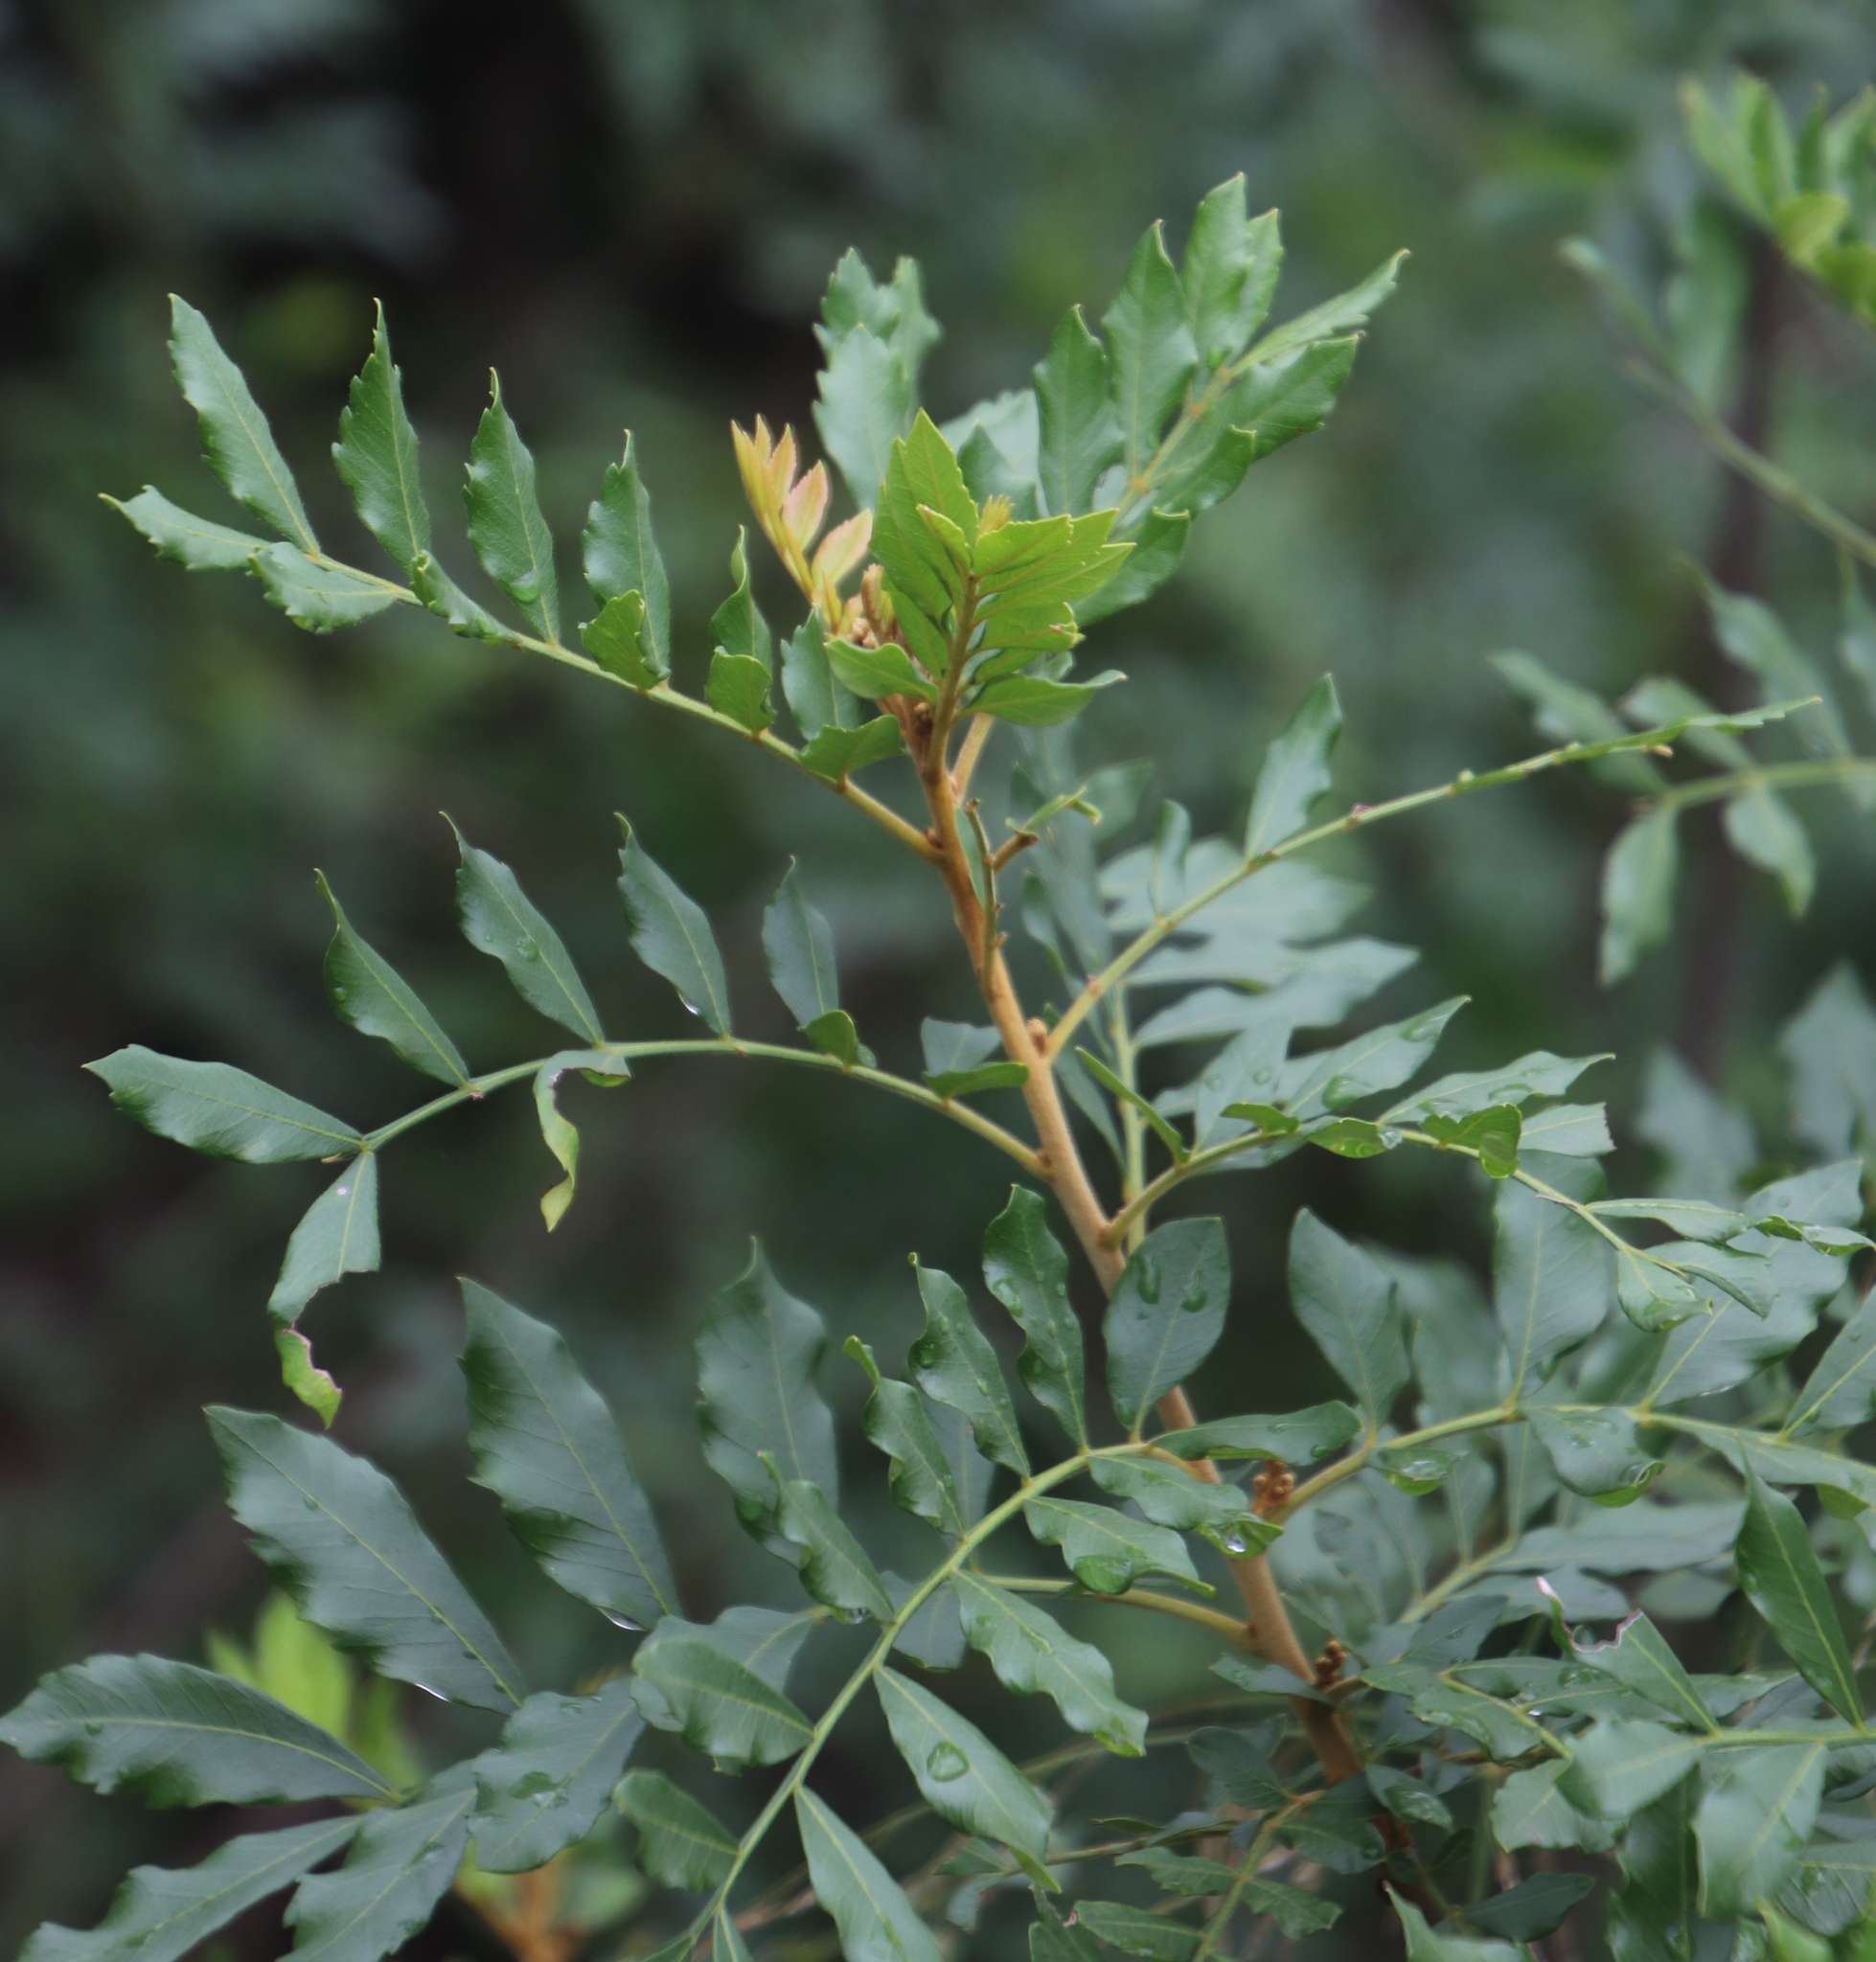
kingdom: Plantae
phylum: Tracheophyta
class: Magnoliopsida
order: Sapindales
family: Rutaceae
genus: Ptaeroxylon
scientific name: Ptaeroxylon obliquum
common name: Sneezewood
